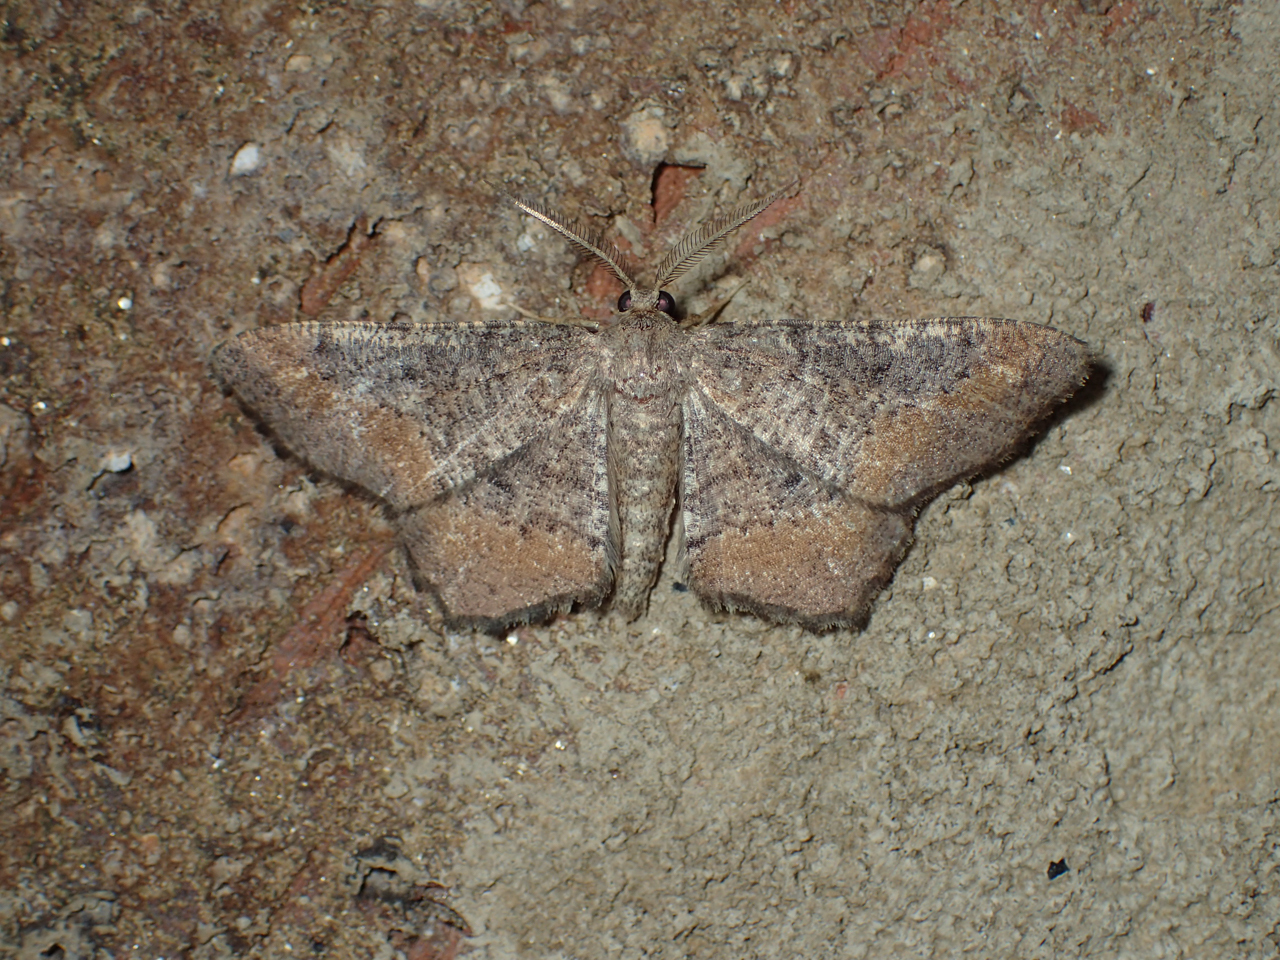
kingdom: Animalia
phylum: Arthropoda
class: Insecta
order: Lepidoptera
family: Geometridae
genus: Hypagyrtis
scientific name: Hypagyrtis esther
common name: Esther moth
